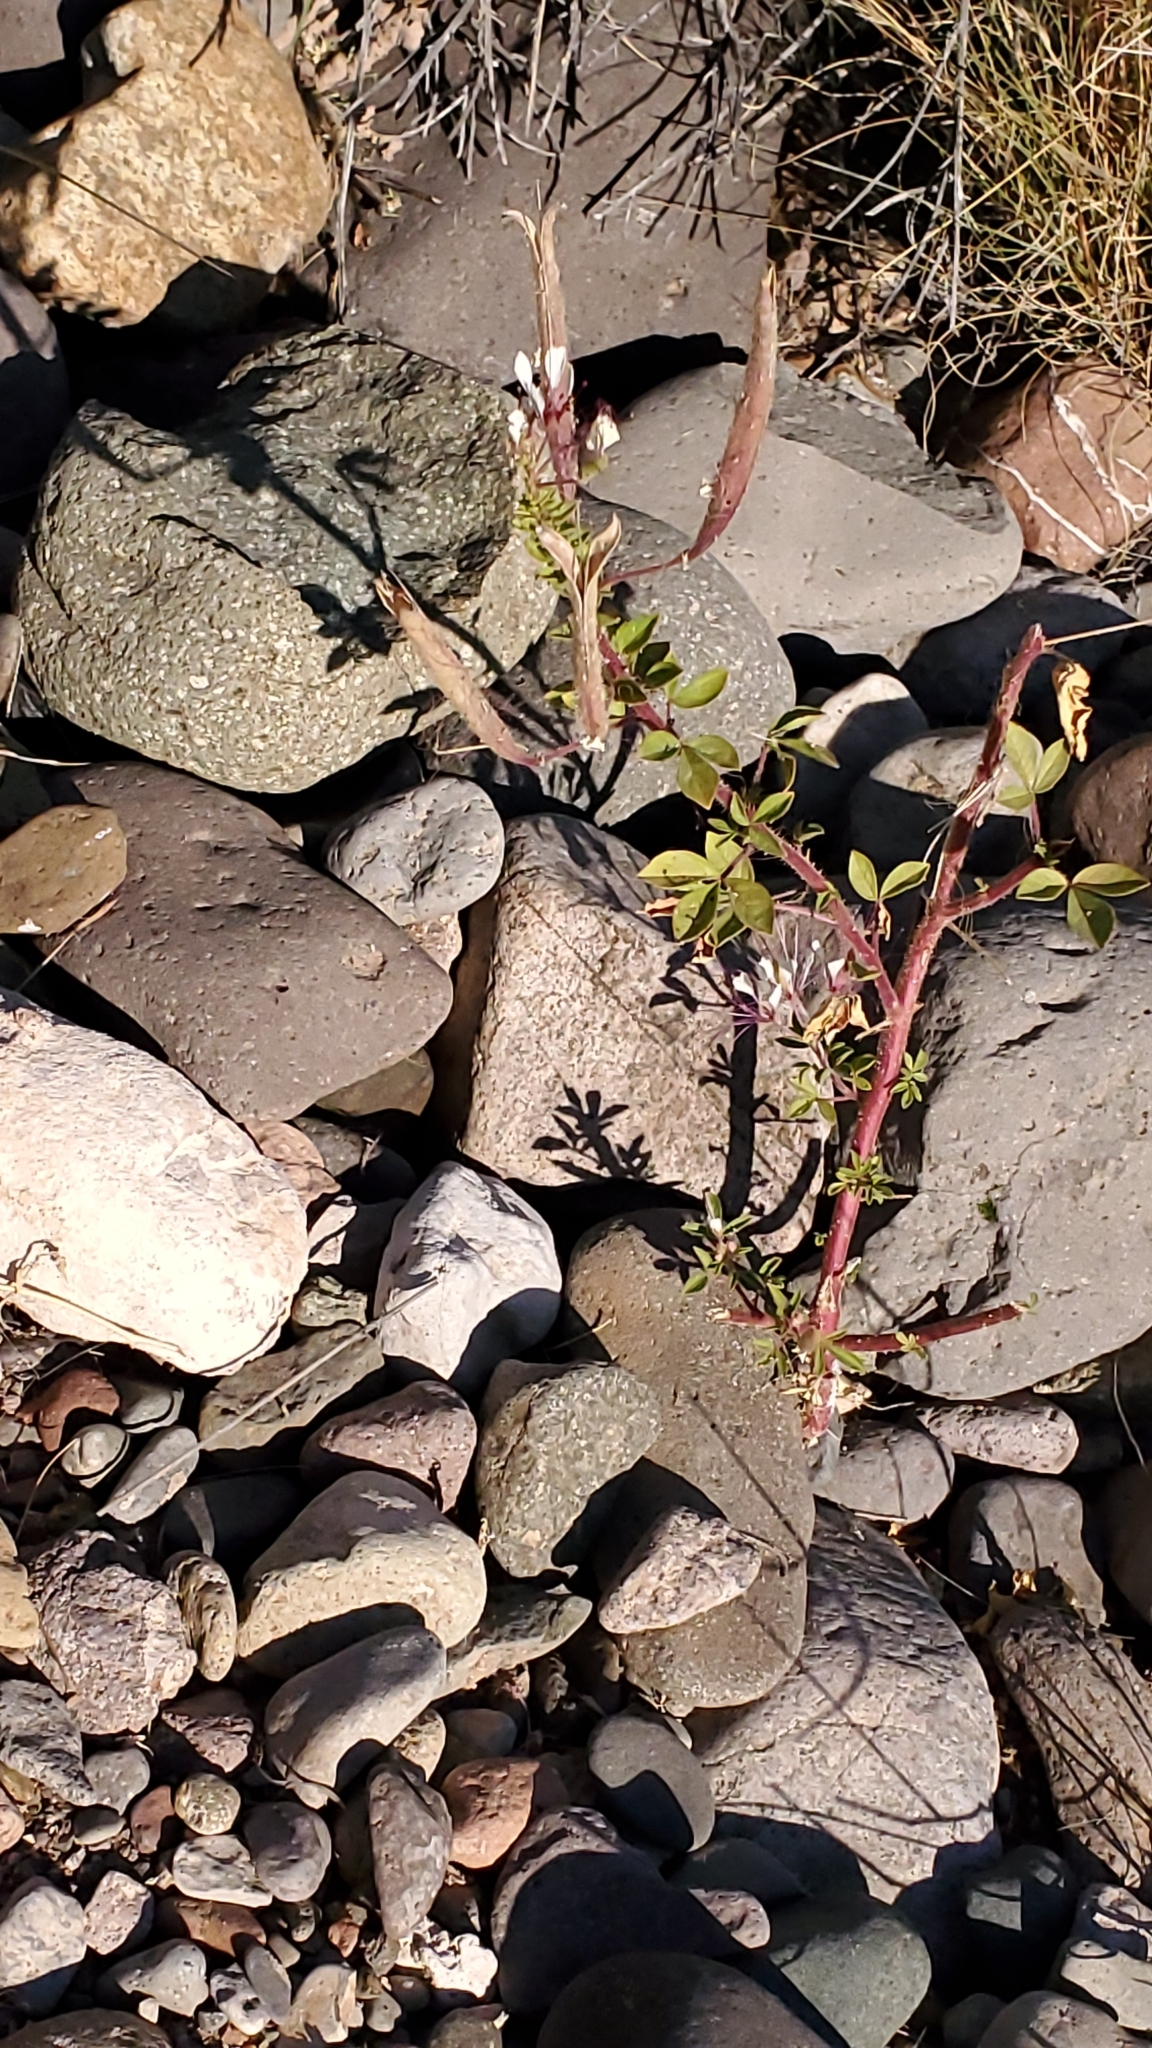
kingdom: Plantae
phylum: Tracheophyta
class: Magnoliopsida
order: Brassicales
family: Cleomaceae
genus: Polanisia
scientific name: Polanisia dodecandra
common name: Clammyweed
